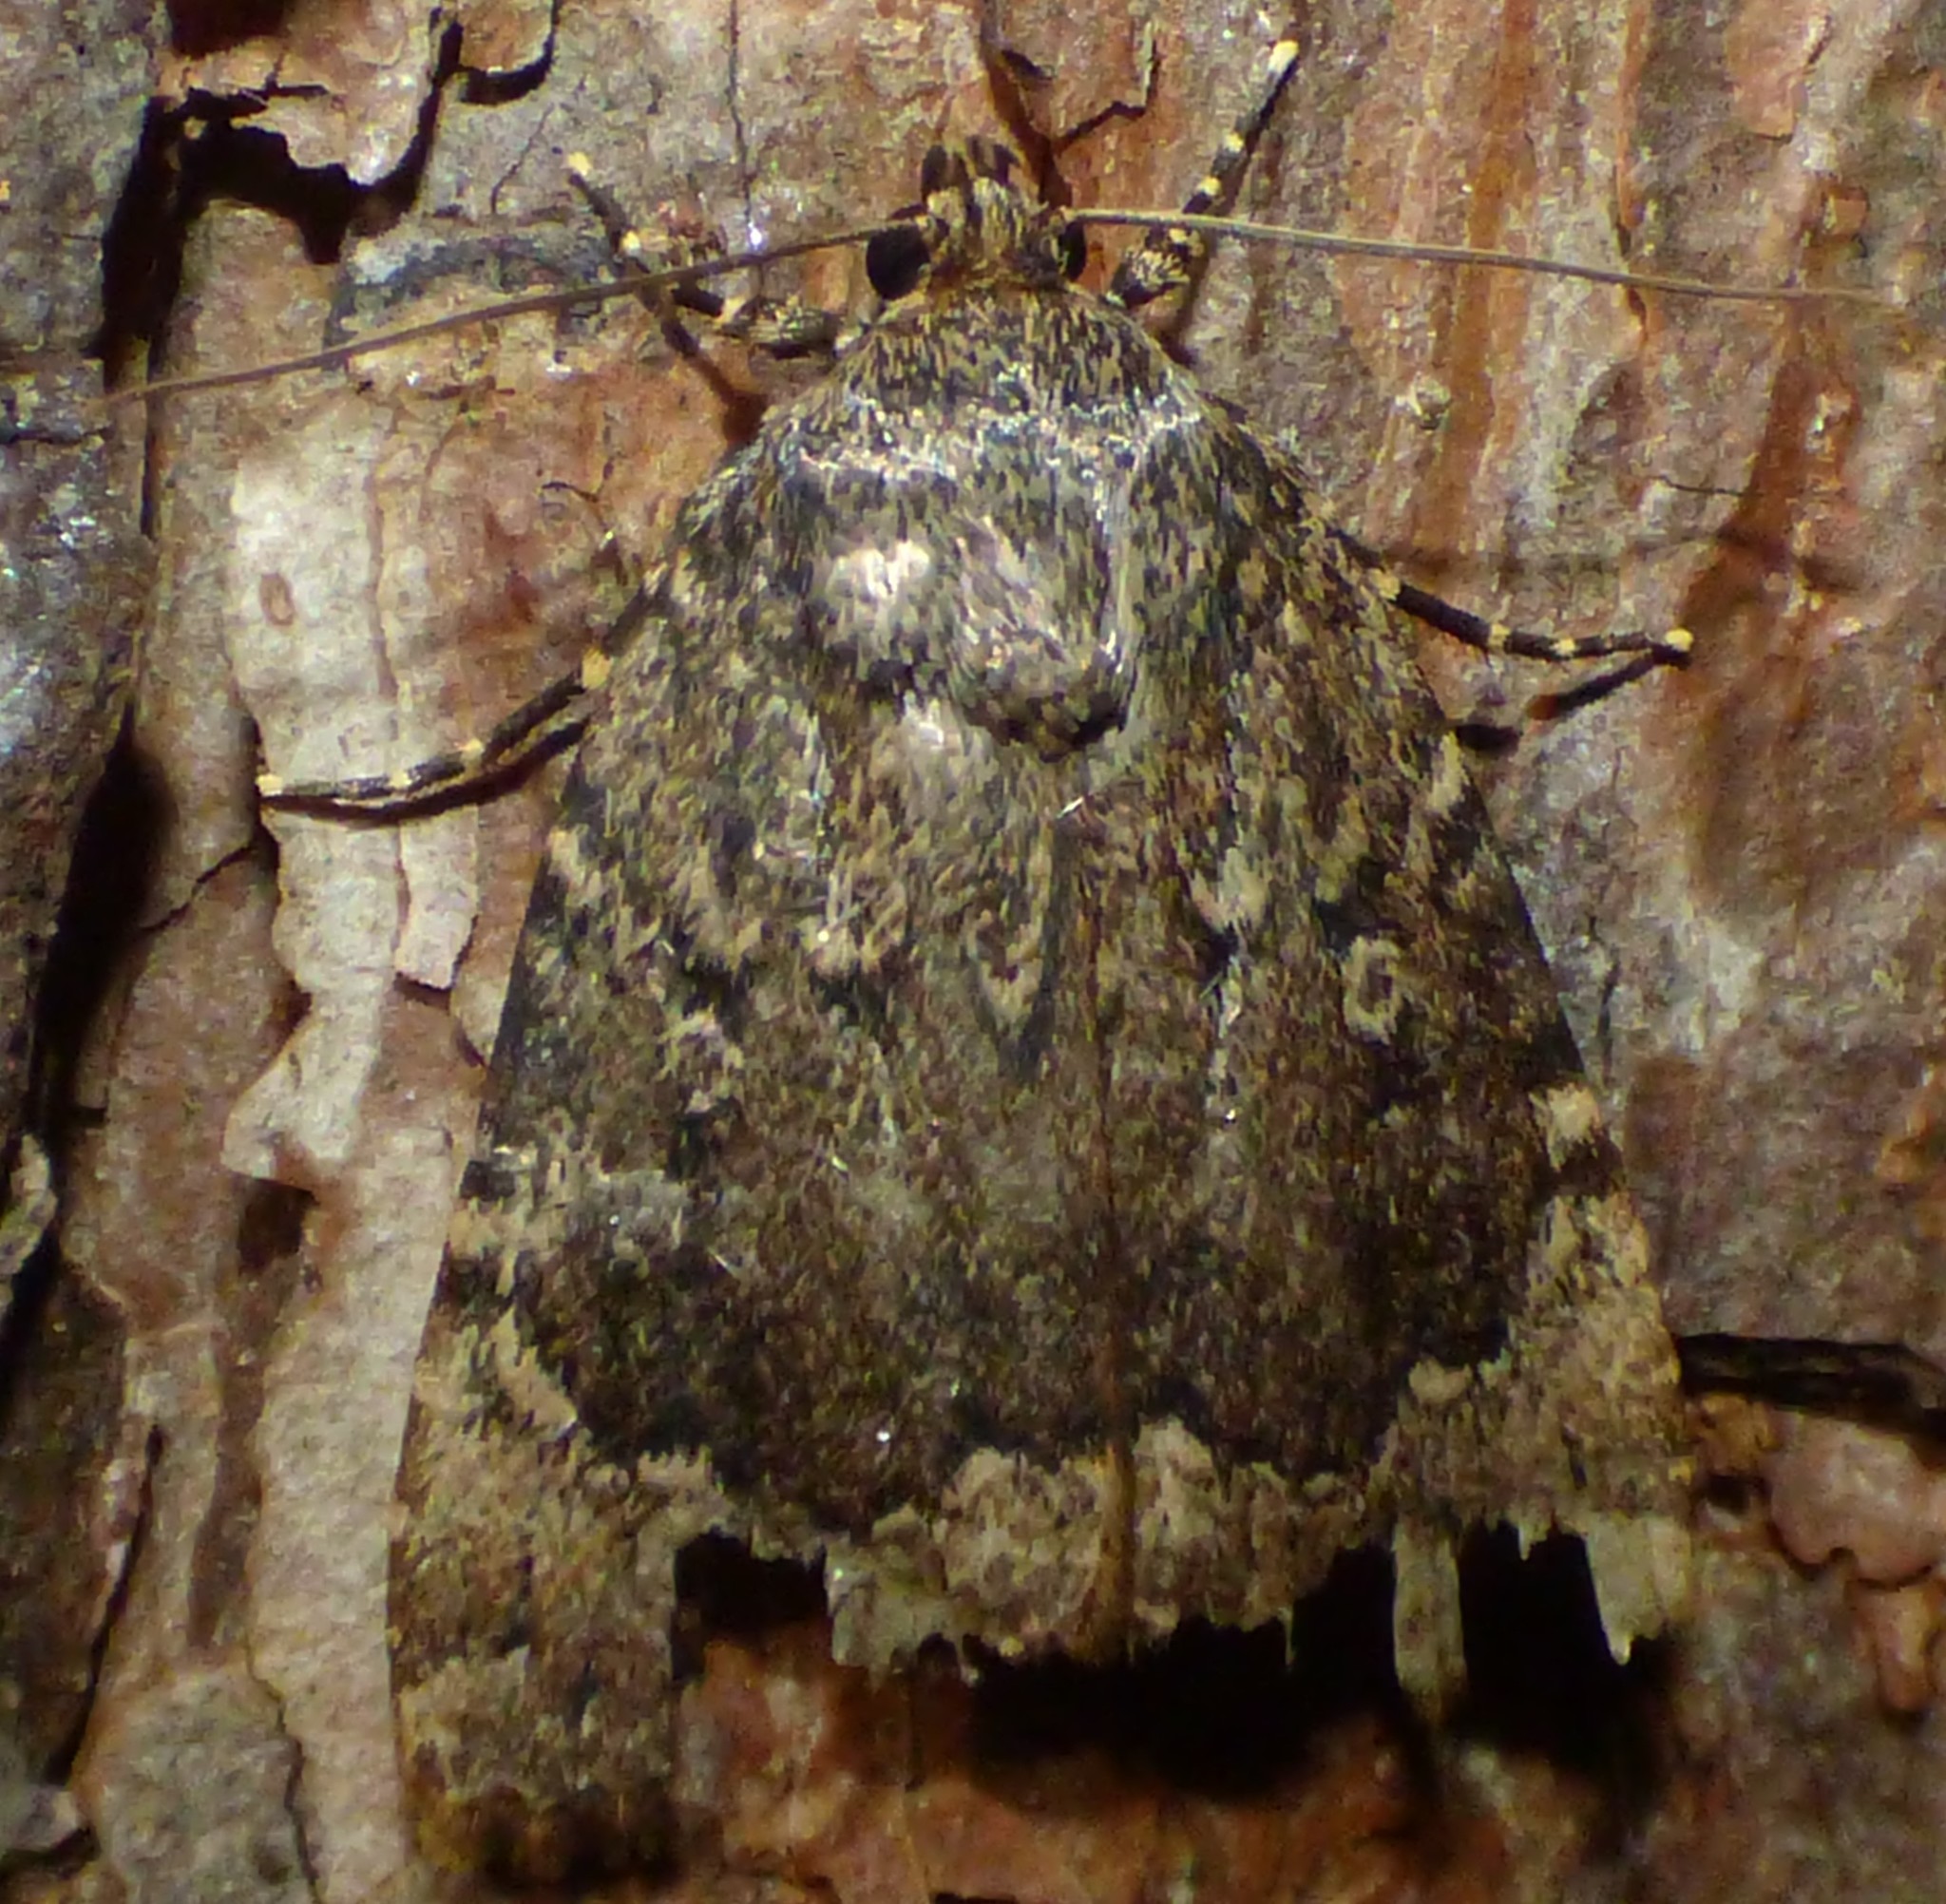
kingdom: Animalia
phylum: Arthropoda
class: Insecta
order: Lepidoptera
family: Noctuidae
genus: Amphipyra
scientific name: Amphipyra pyramidoides
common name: American copper underwing
